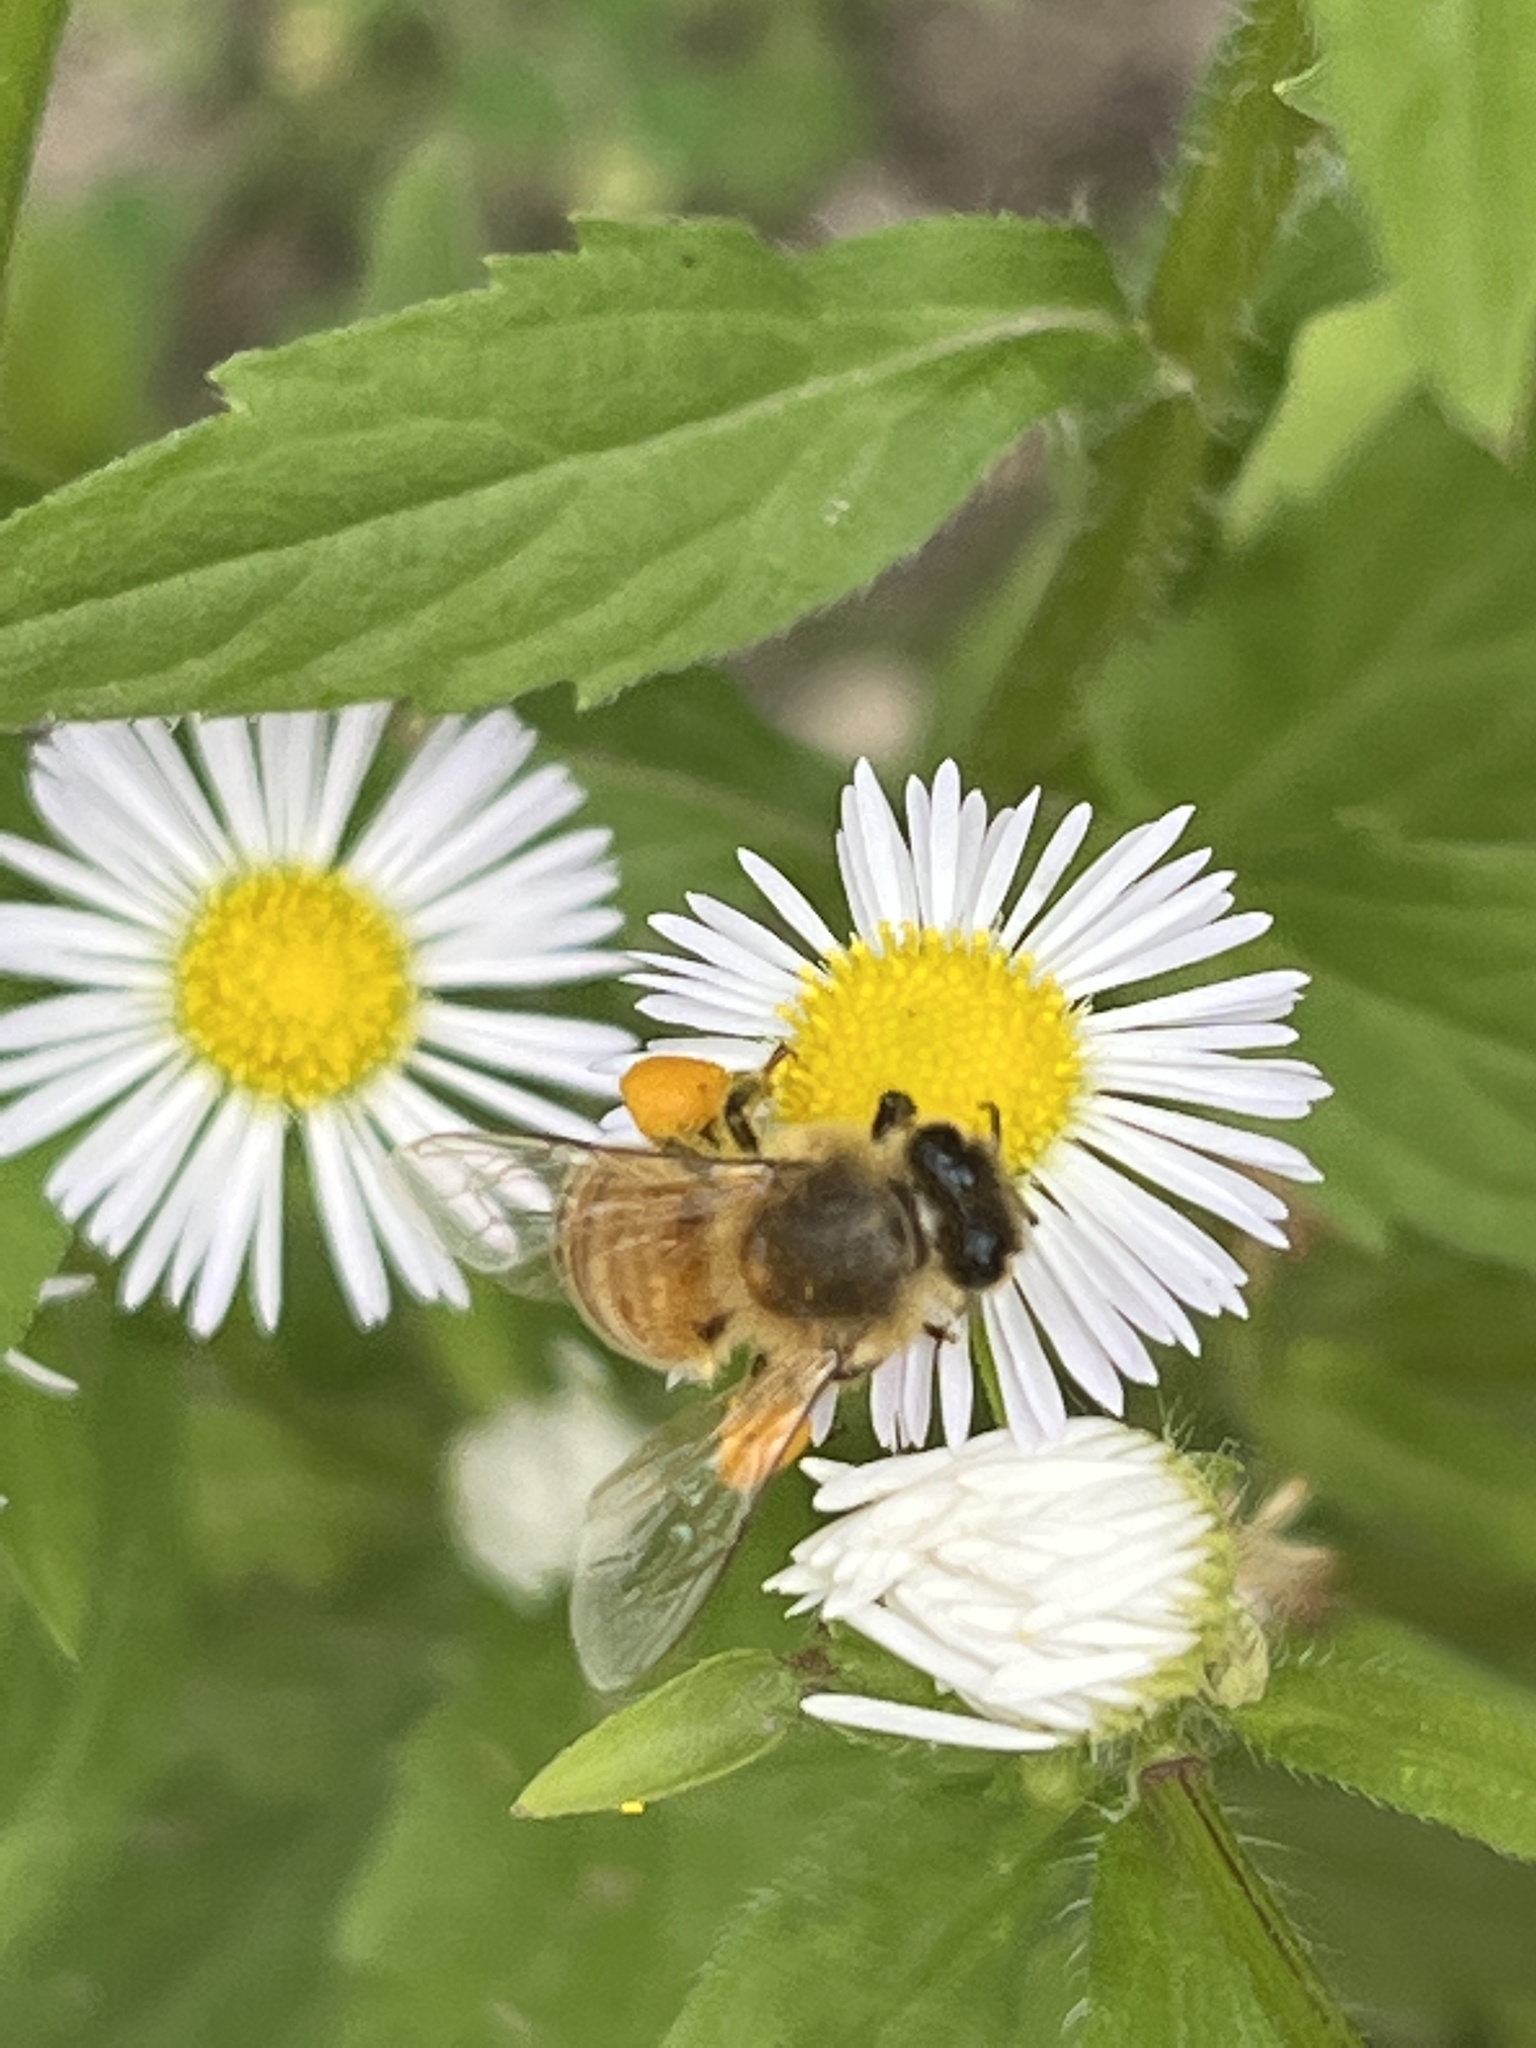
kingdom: Animalia
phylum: Arthropoda
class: Insecta
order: Hymenoptera
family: Apidae
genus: Apis
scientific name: Apis mellifera
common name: Honey bee
